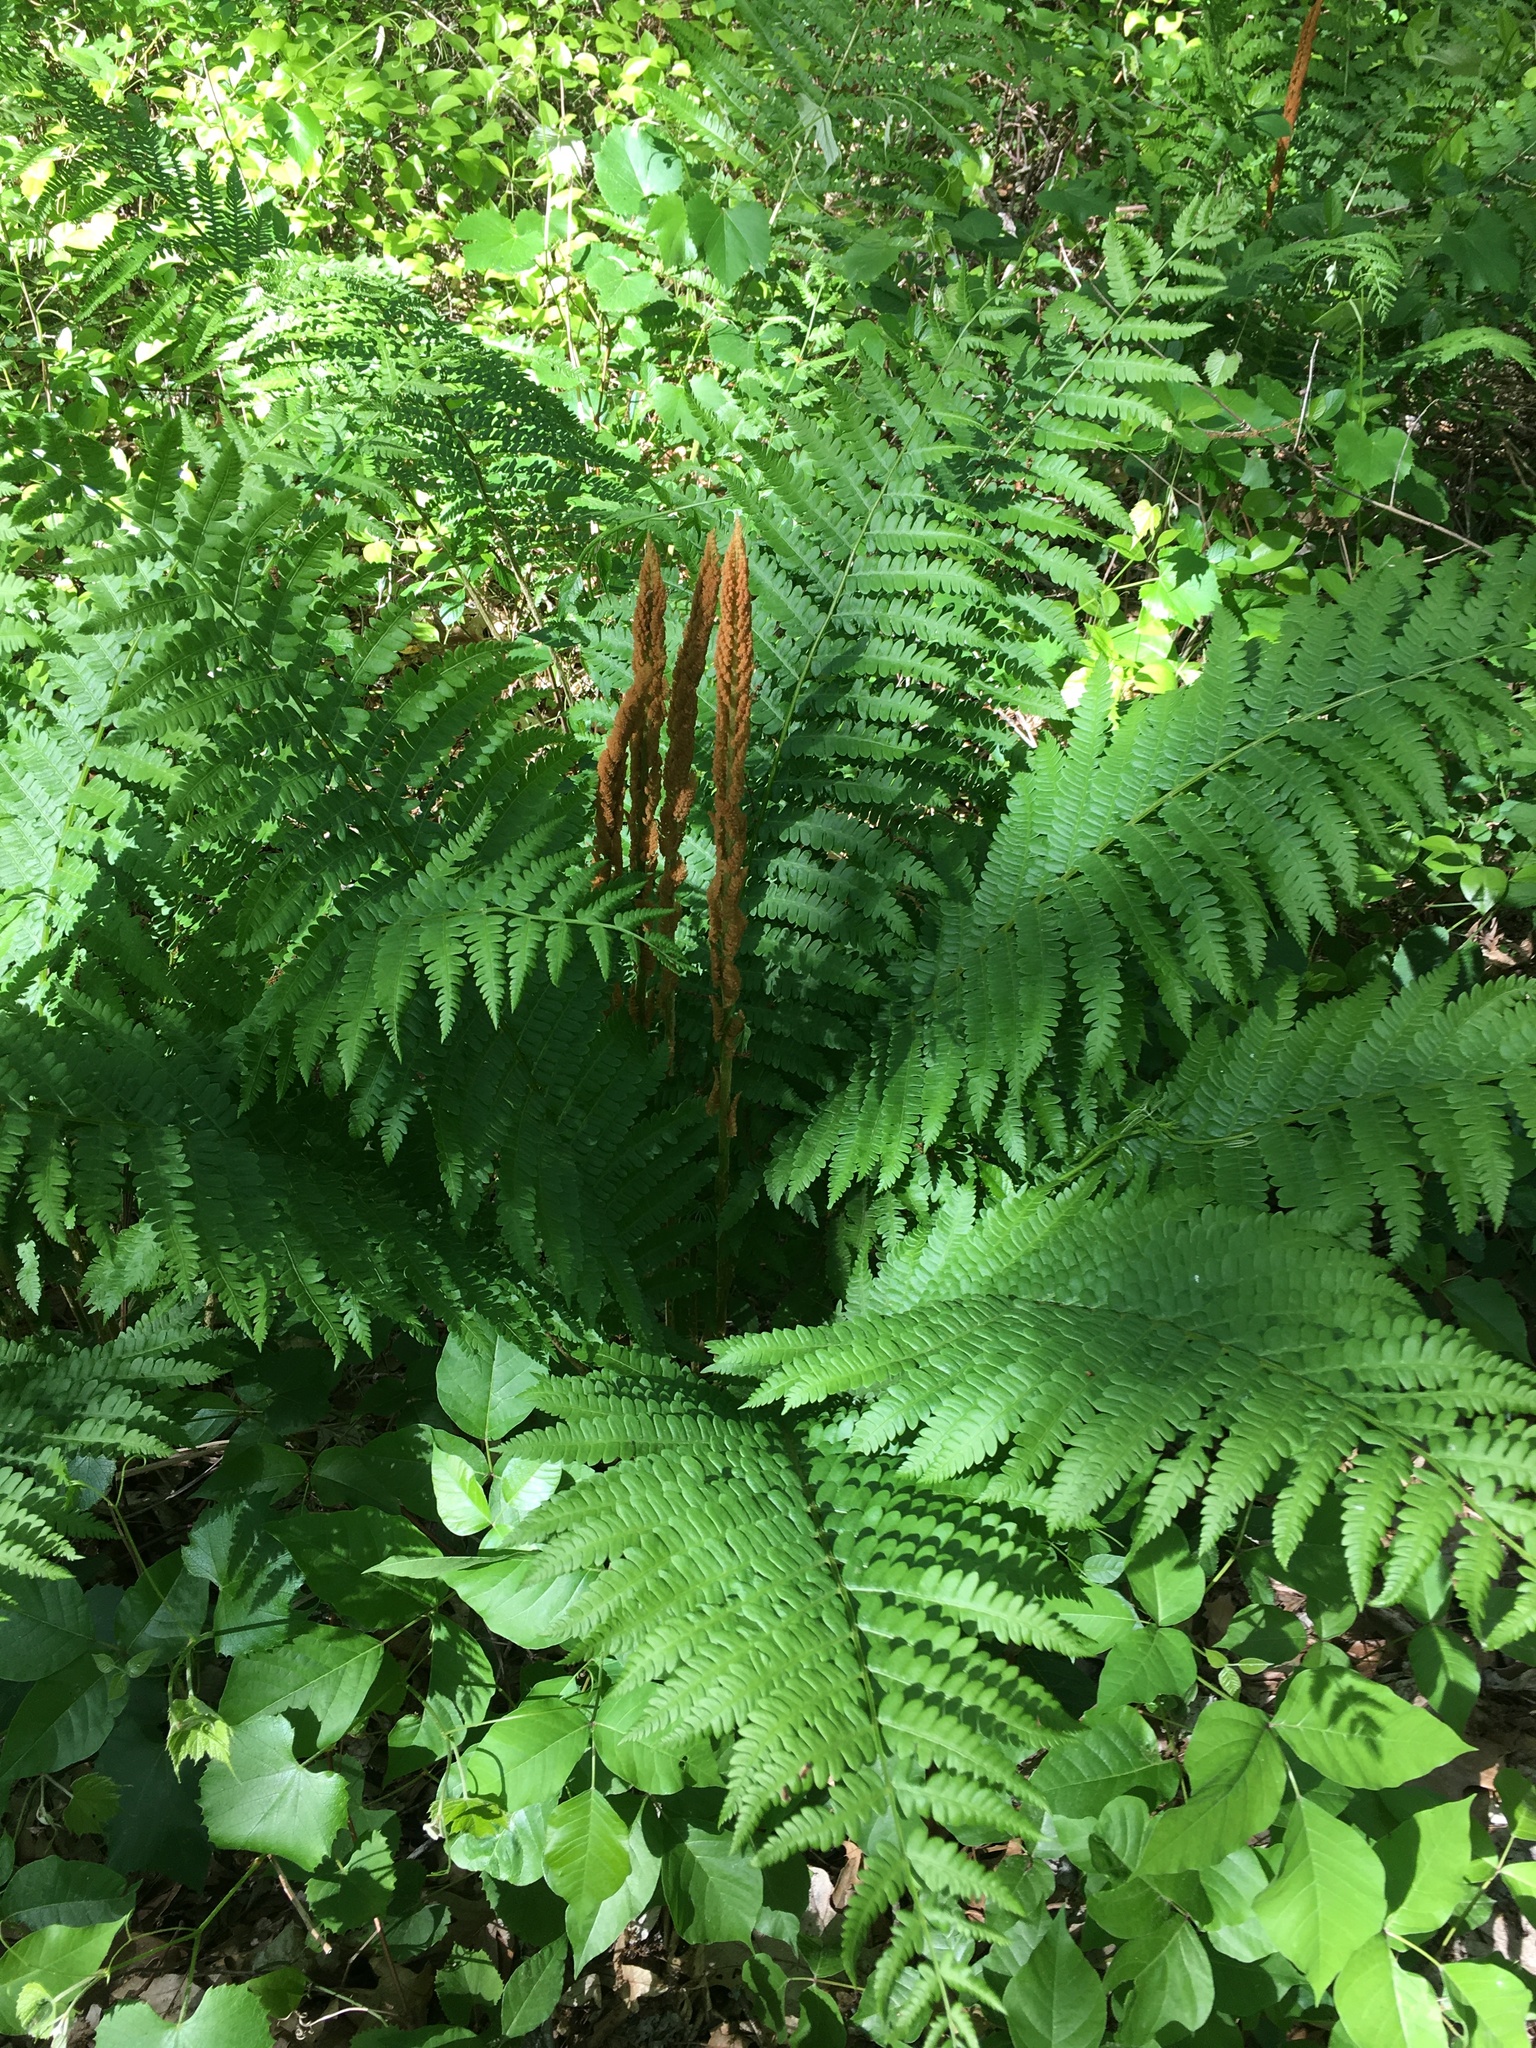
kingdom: Plantae
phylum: Tracheophyta
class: Polypodiopsida
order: Osmundales
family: Osmundaceae
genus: Osmundastrum
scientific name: Osmundastrum cinnamomeum
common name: Cinnamon fern
